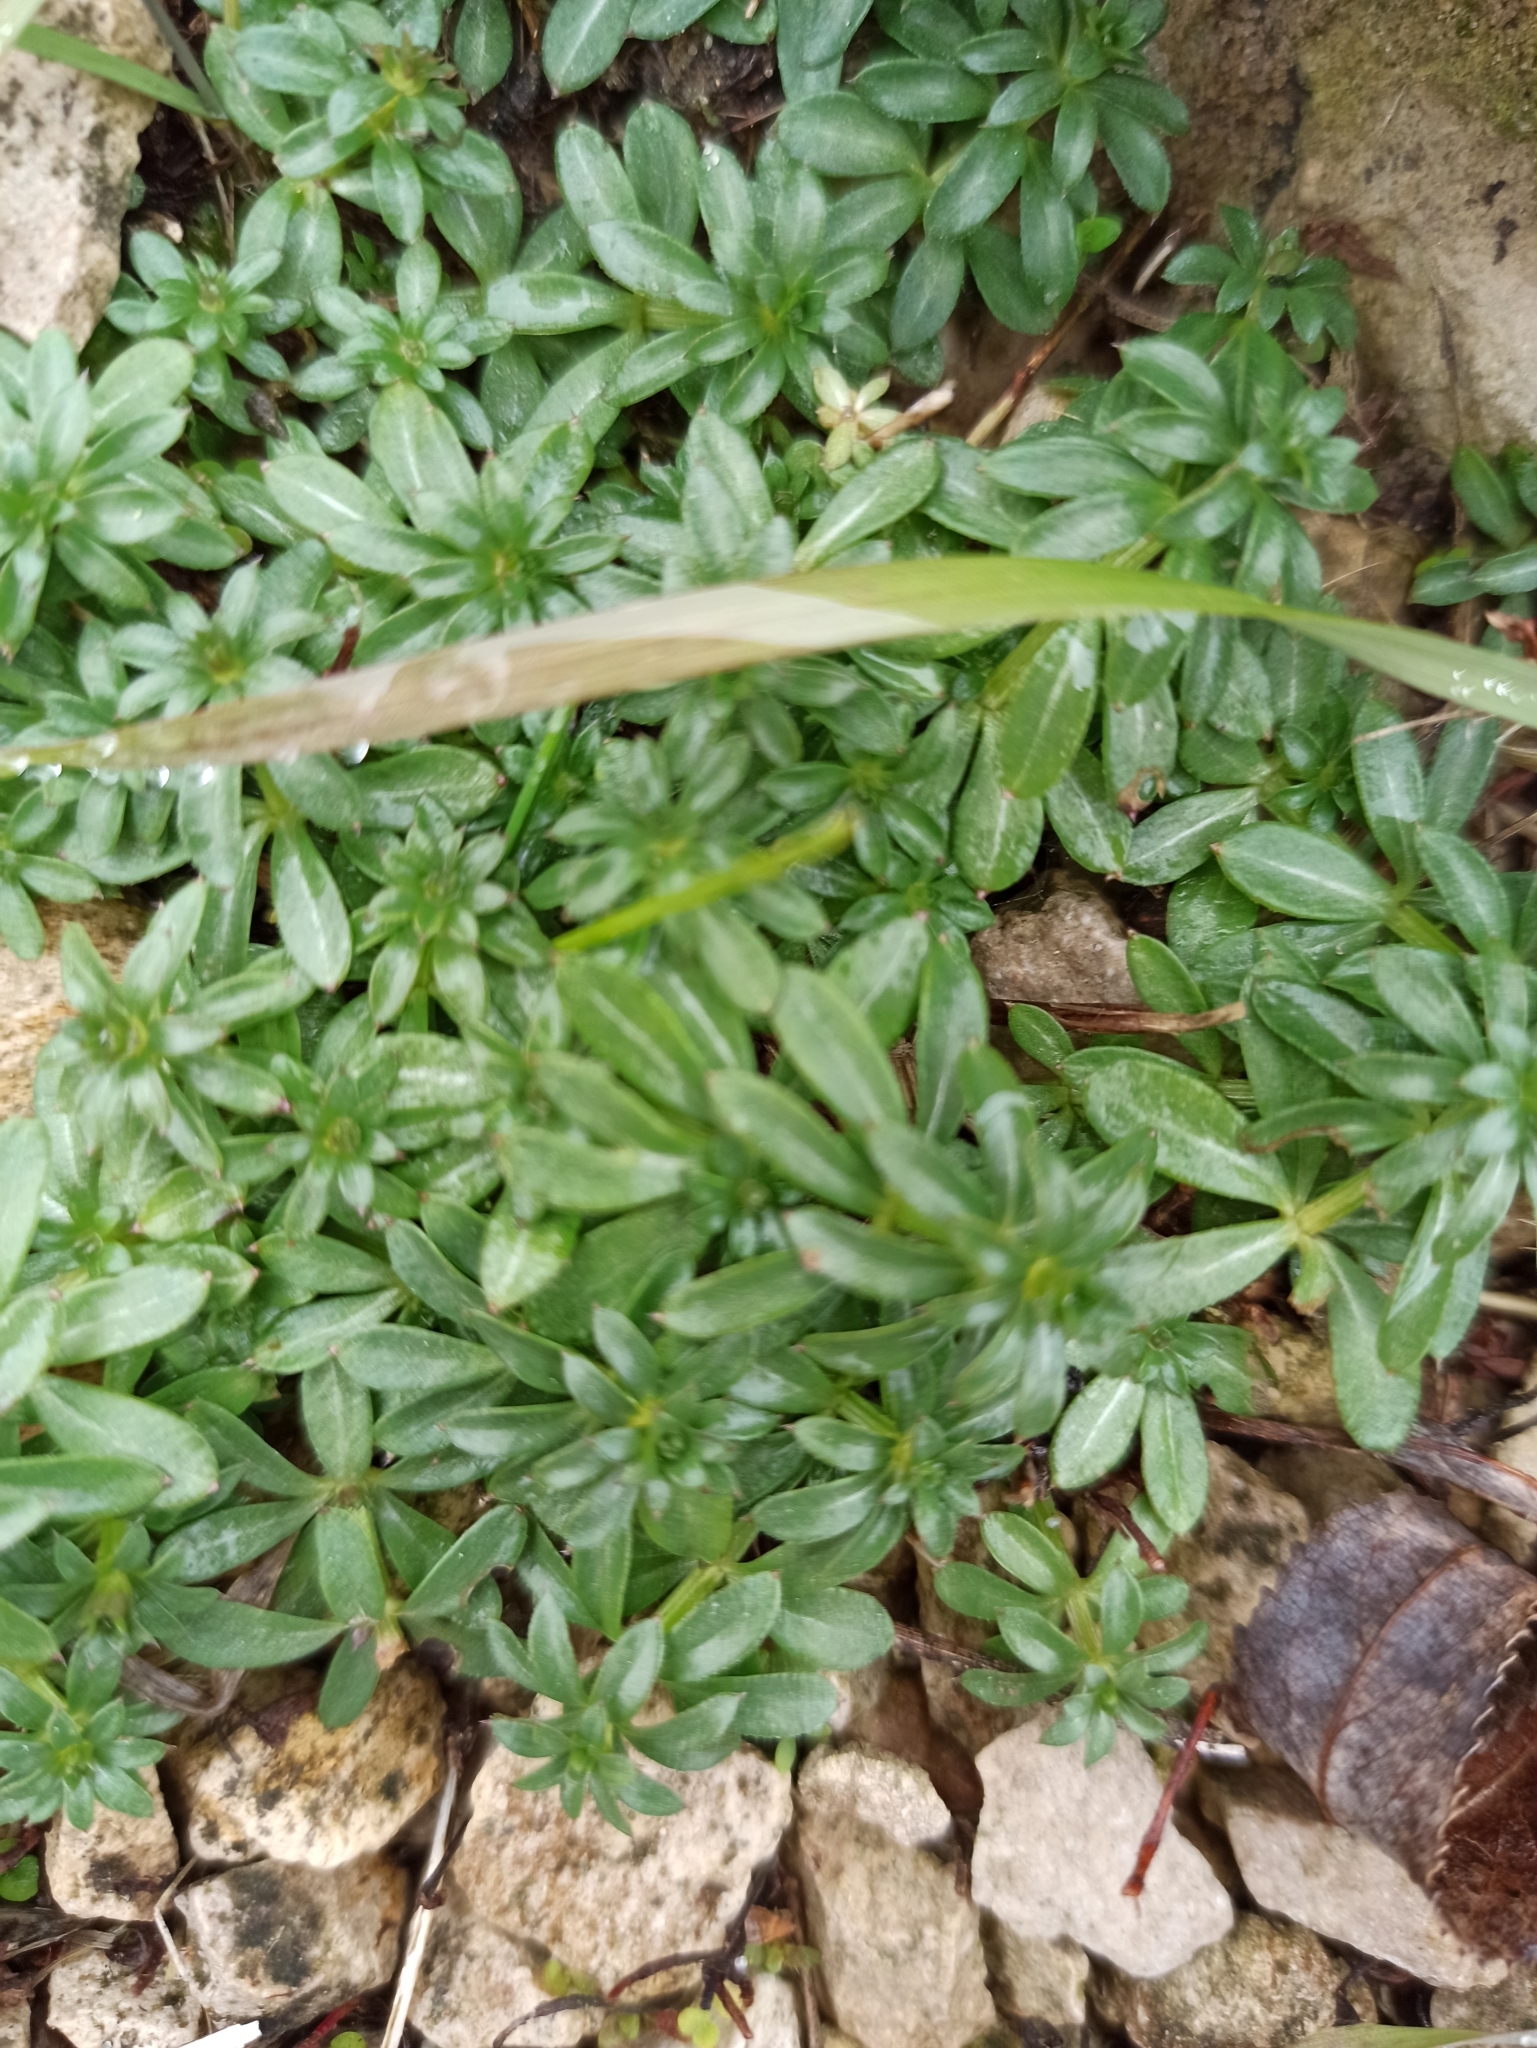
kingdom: Plantae
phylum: Tracheophyta
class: Magnoliopsida
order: Gentianales
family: Rubiaceae
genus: Galium
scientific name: Galium mollugo
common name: Hedge bedstraw
